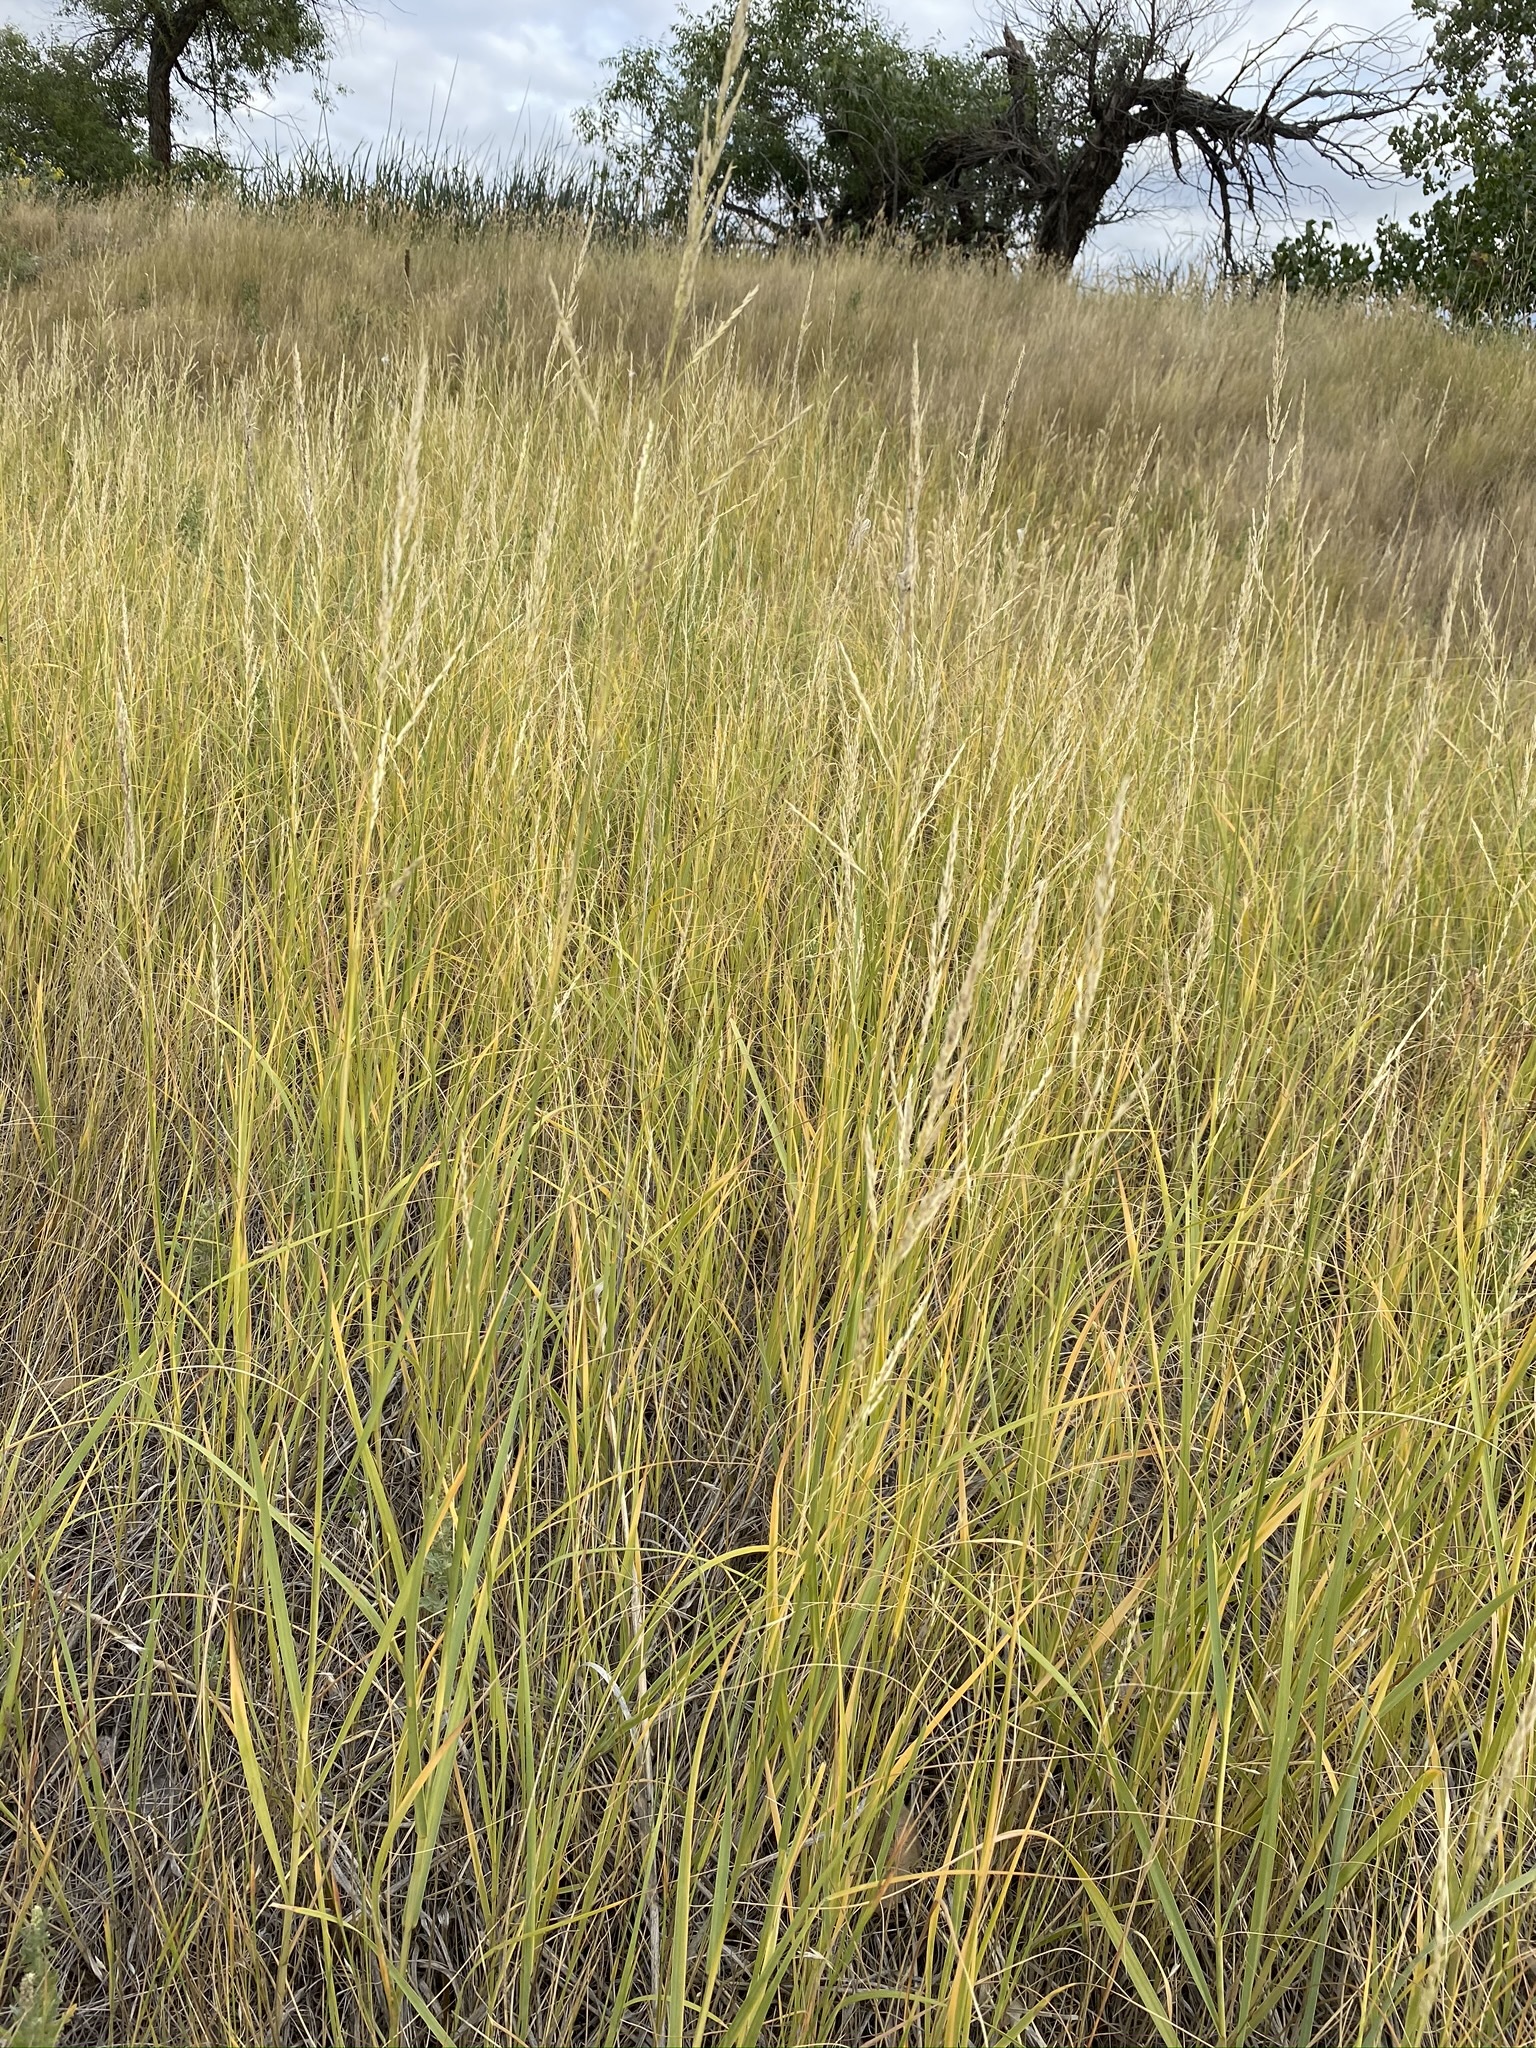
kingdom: Plantae
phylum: Tracheophyta
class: Liliopsida
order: Poales
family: Poaceae
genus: Sporobolus
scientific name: Sporobolus rigidus
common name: Prairie sandreed
